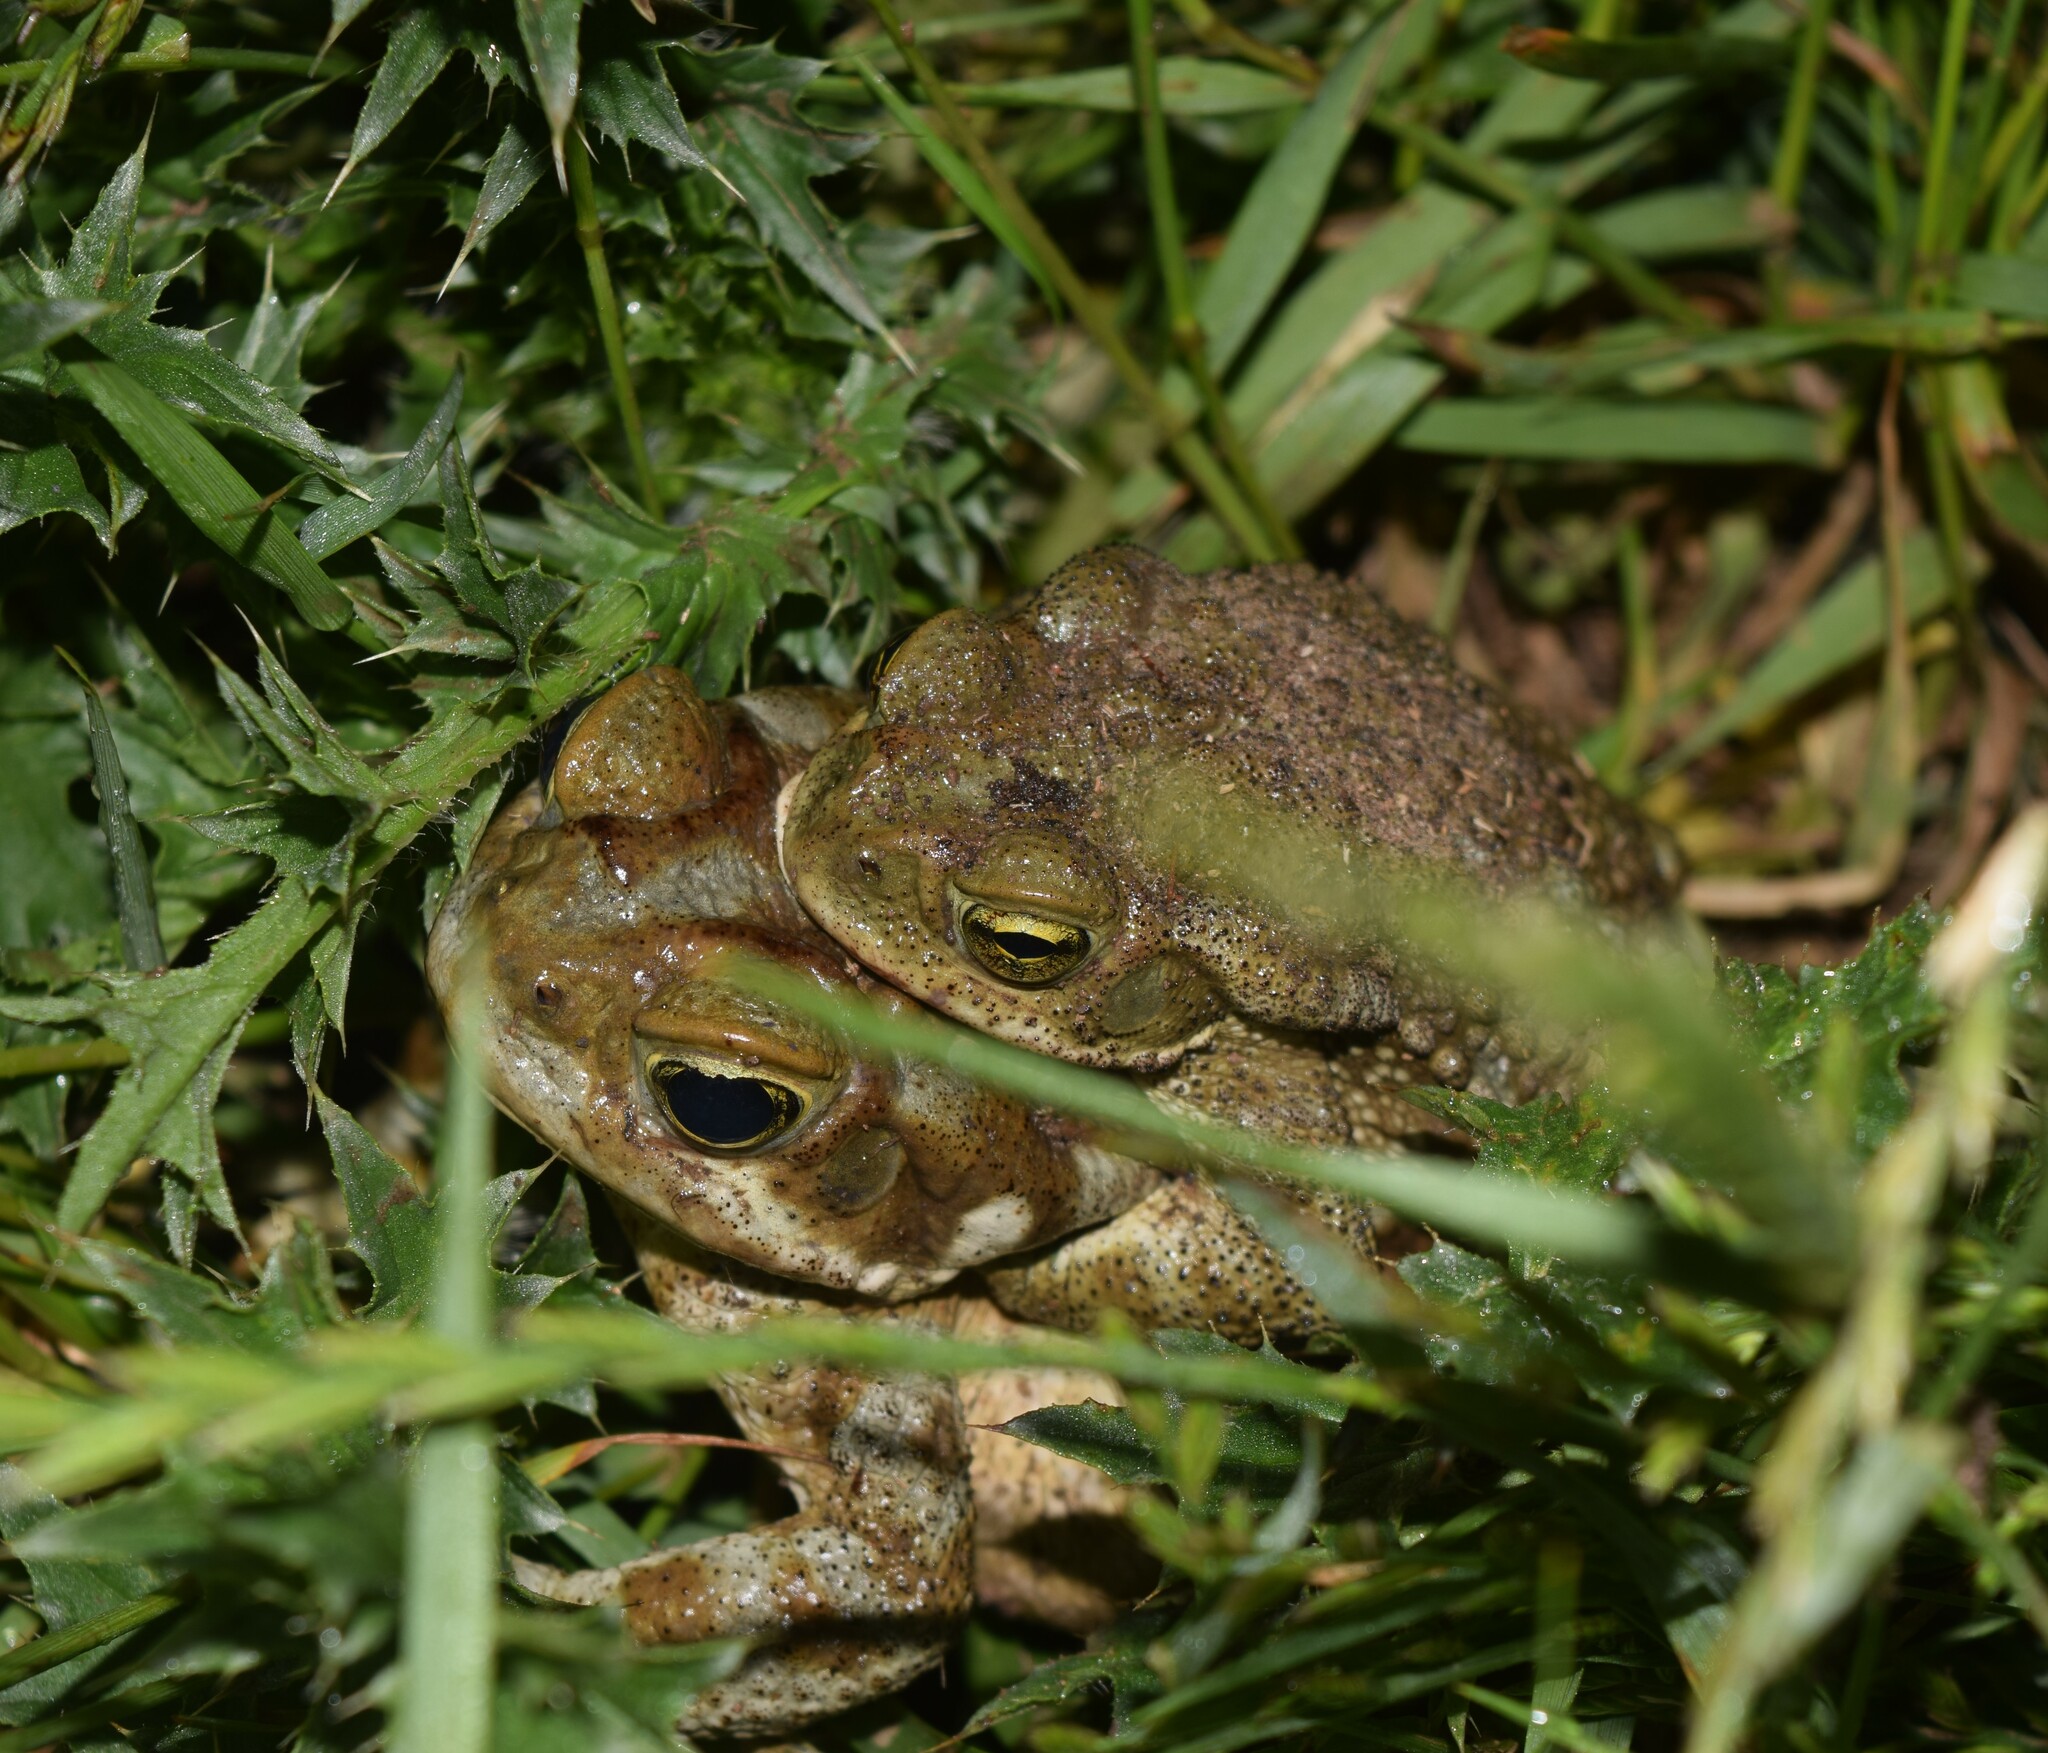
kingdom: Animalia
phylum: Chordata
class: Amphibia
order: Anura
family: Bufonidae
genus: Rhinella
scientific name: Rhinella arenarum
